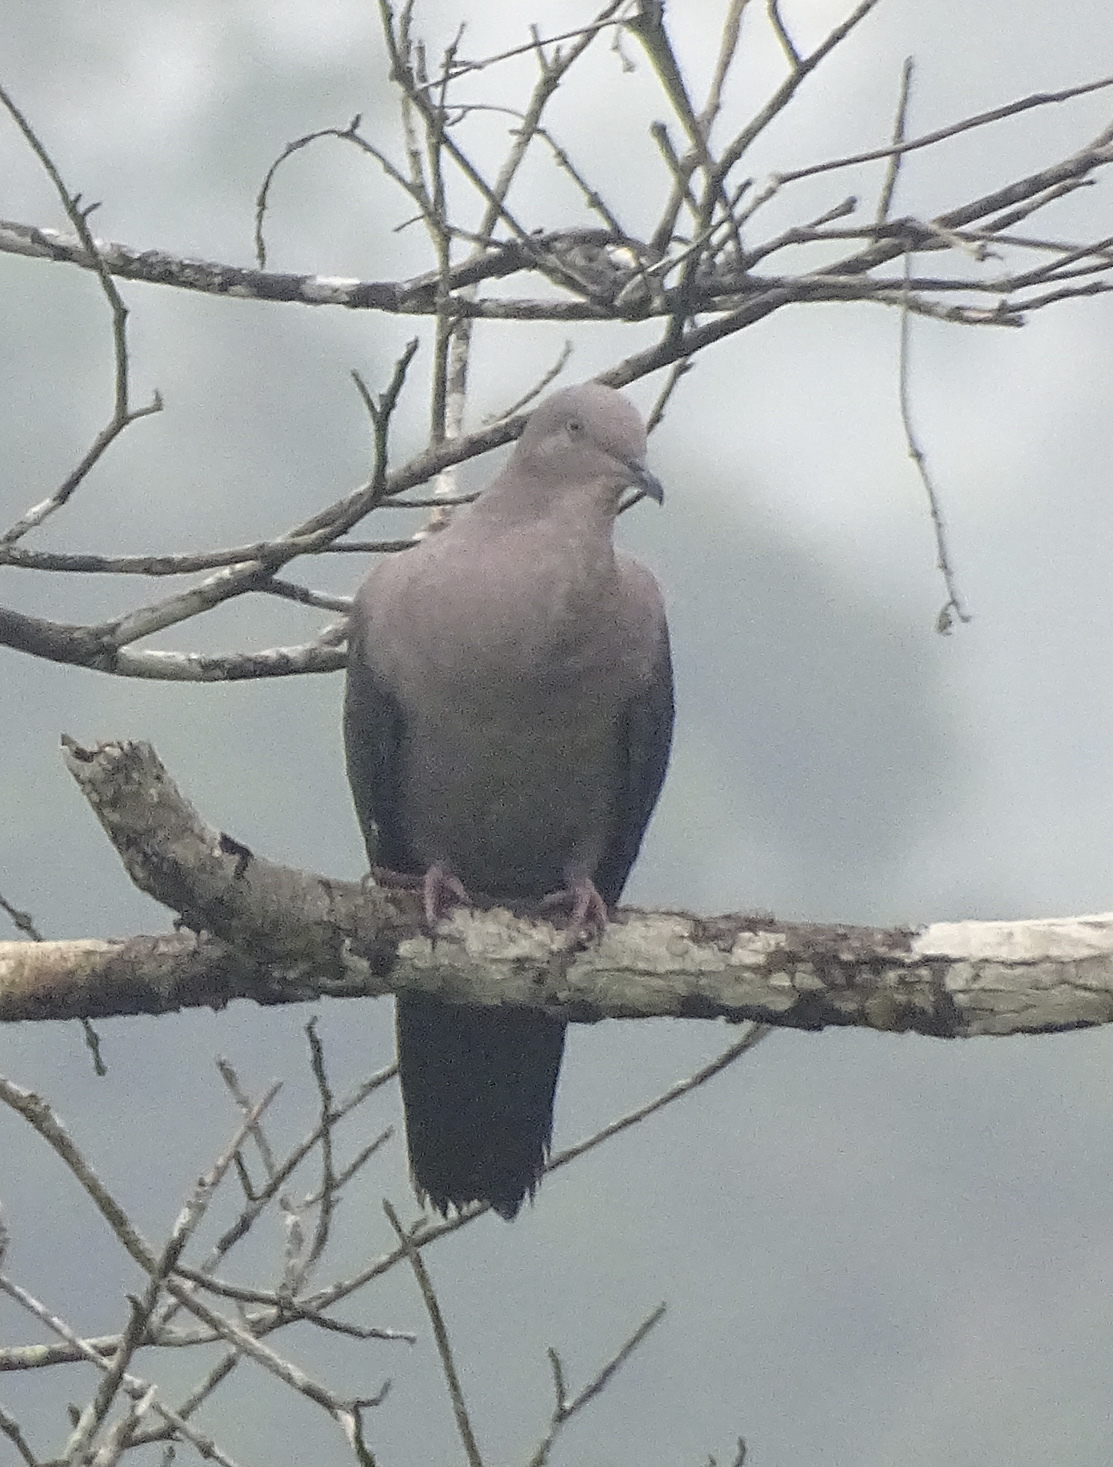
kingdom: Animalia
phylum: Chordata
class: Aves
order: Columbiformes
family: Columbidae
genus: Patagioenas
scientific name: Patagioenas plumbea
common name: Plumbeous pigeon
